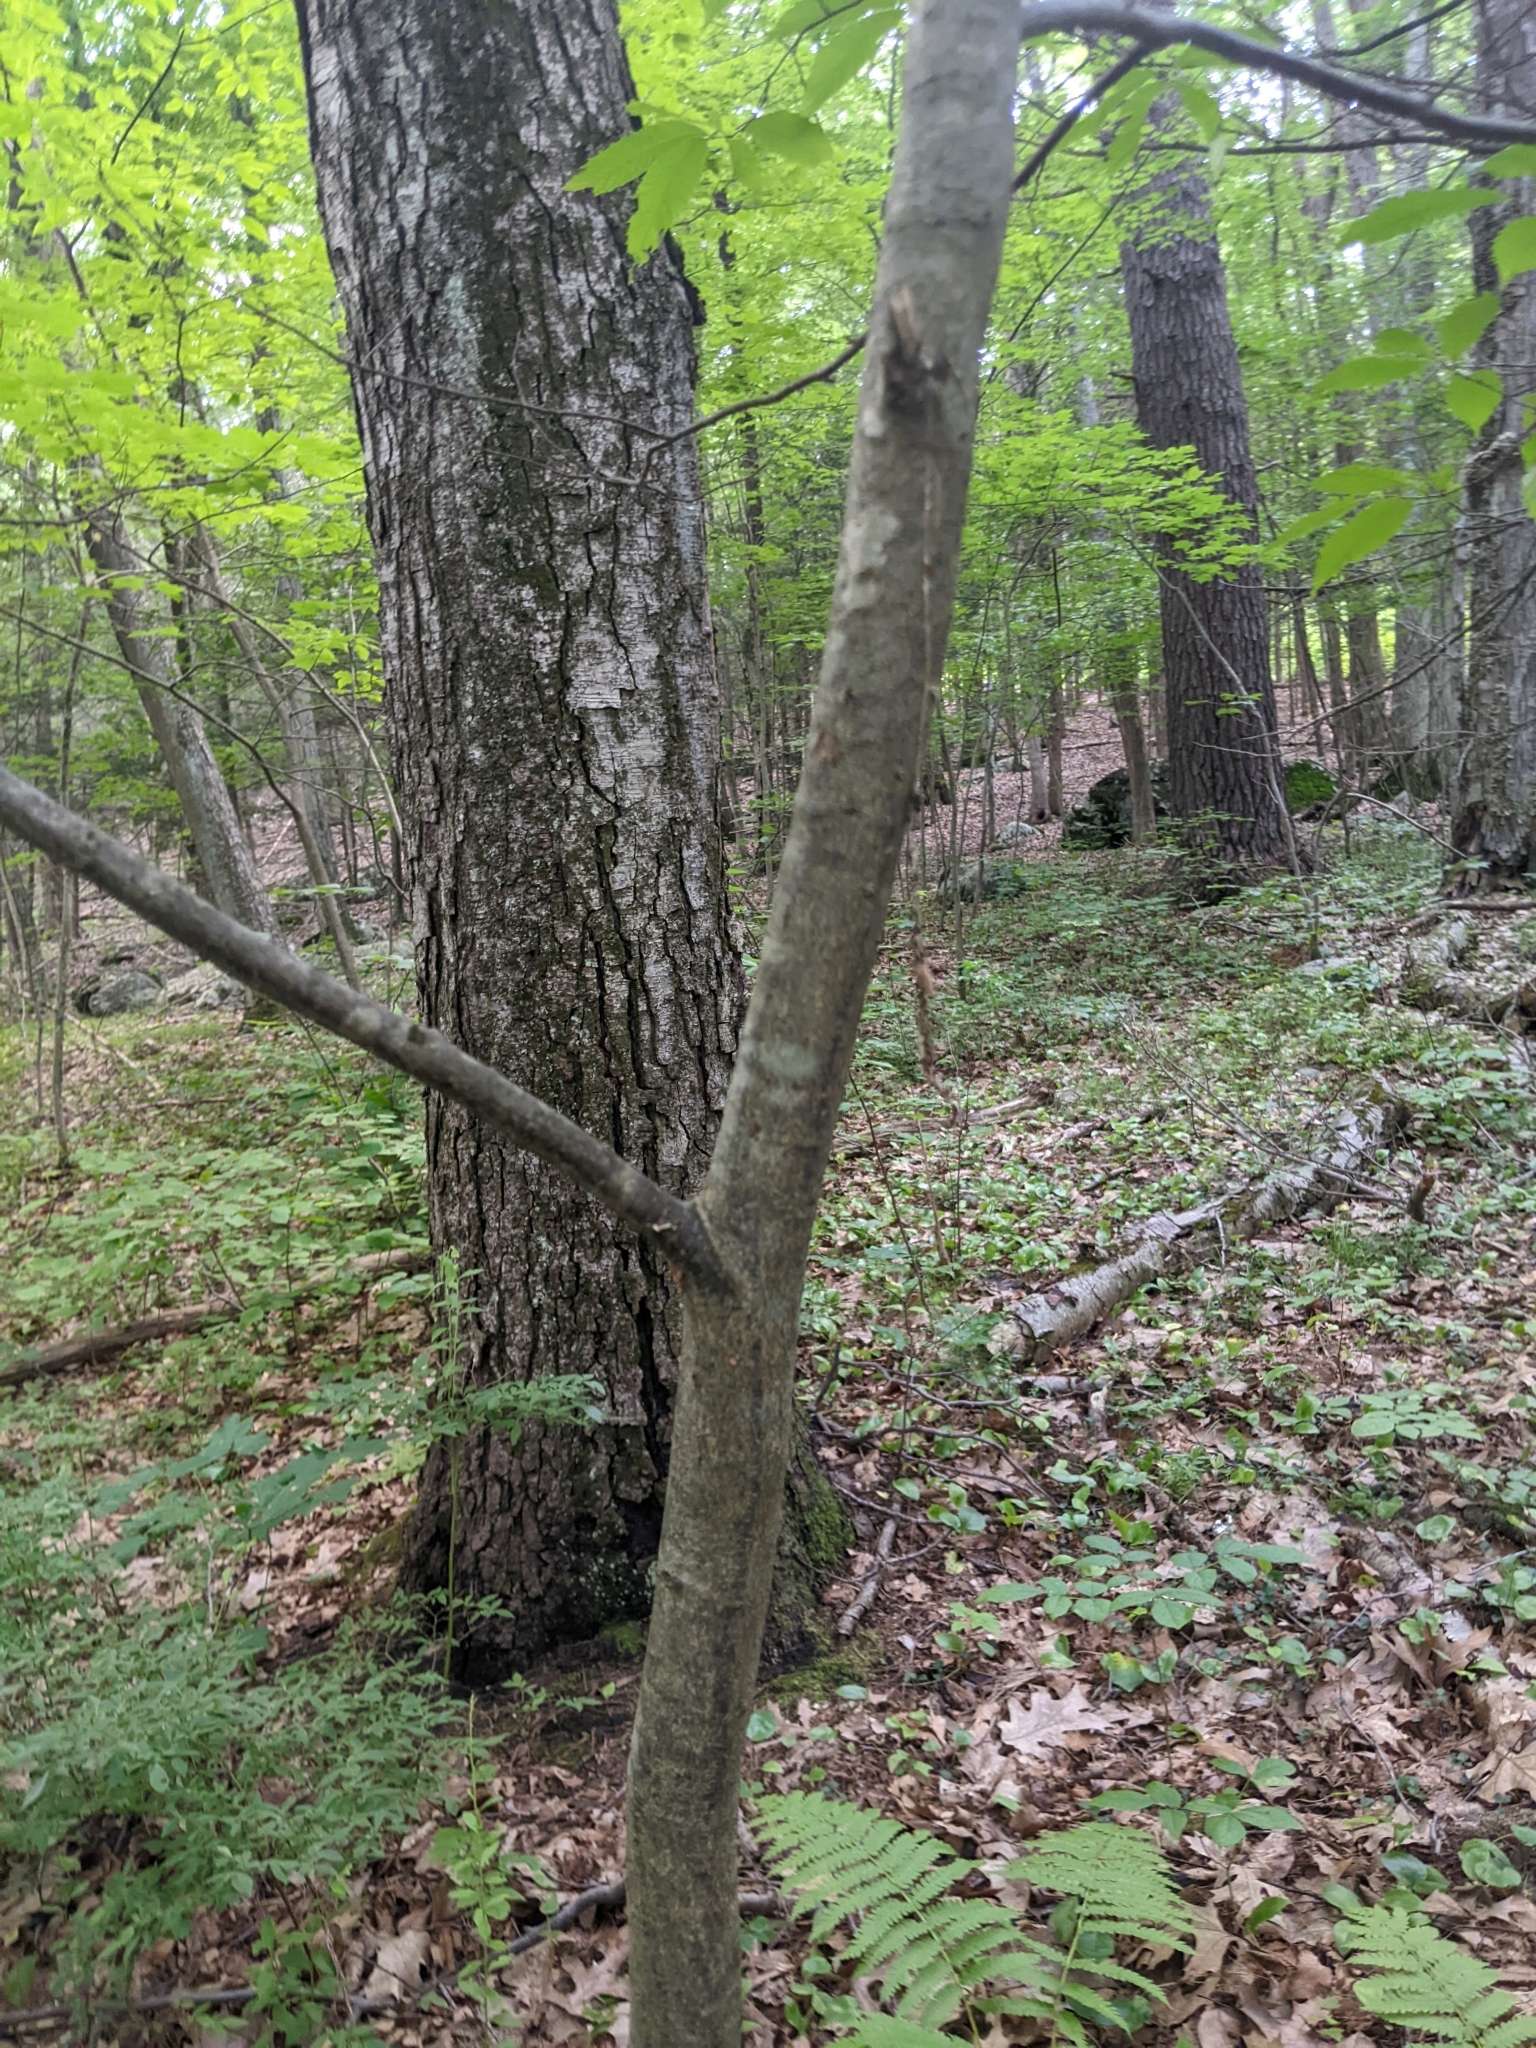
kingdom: Plantae
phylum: Tracheophyta
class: Magnoliopsida
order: Fagales
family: Fagaceae
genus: Castanea
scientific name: Castanea dentata
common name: American chestnut
